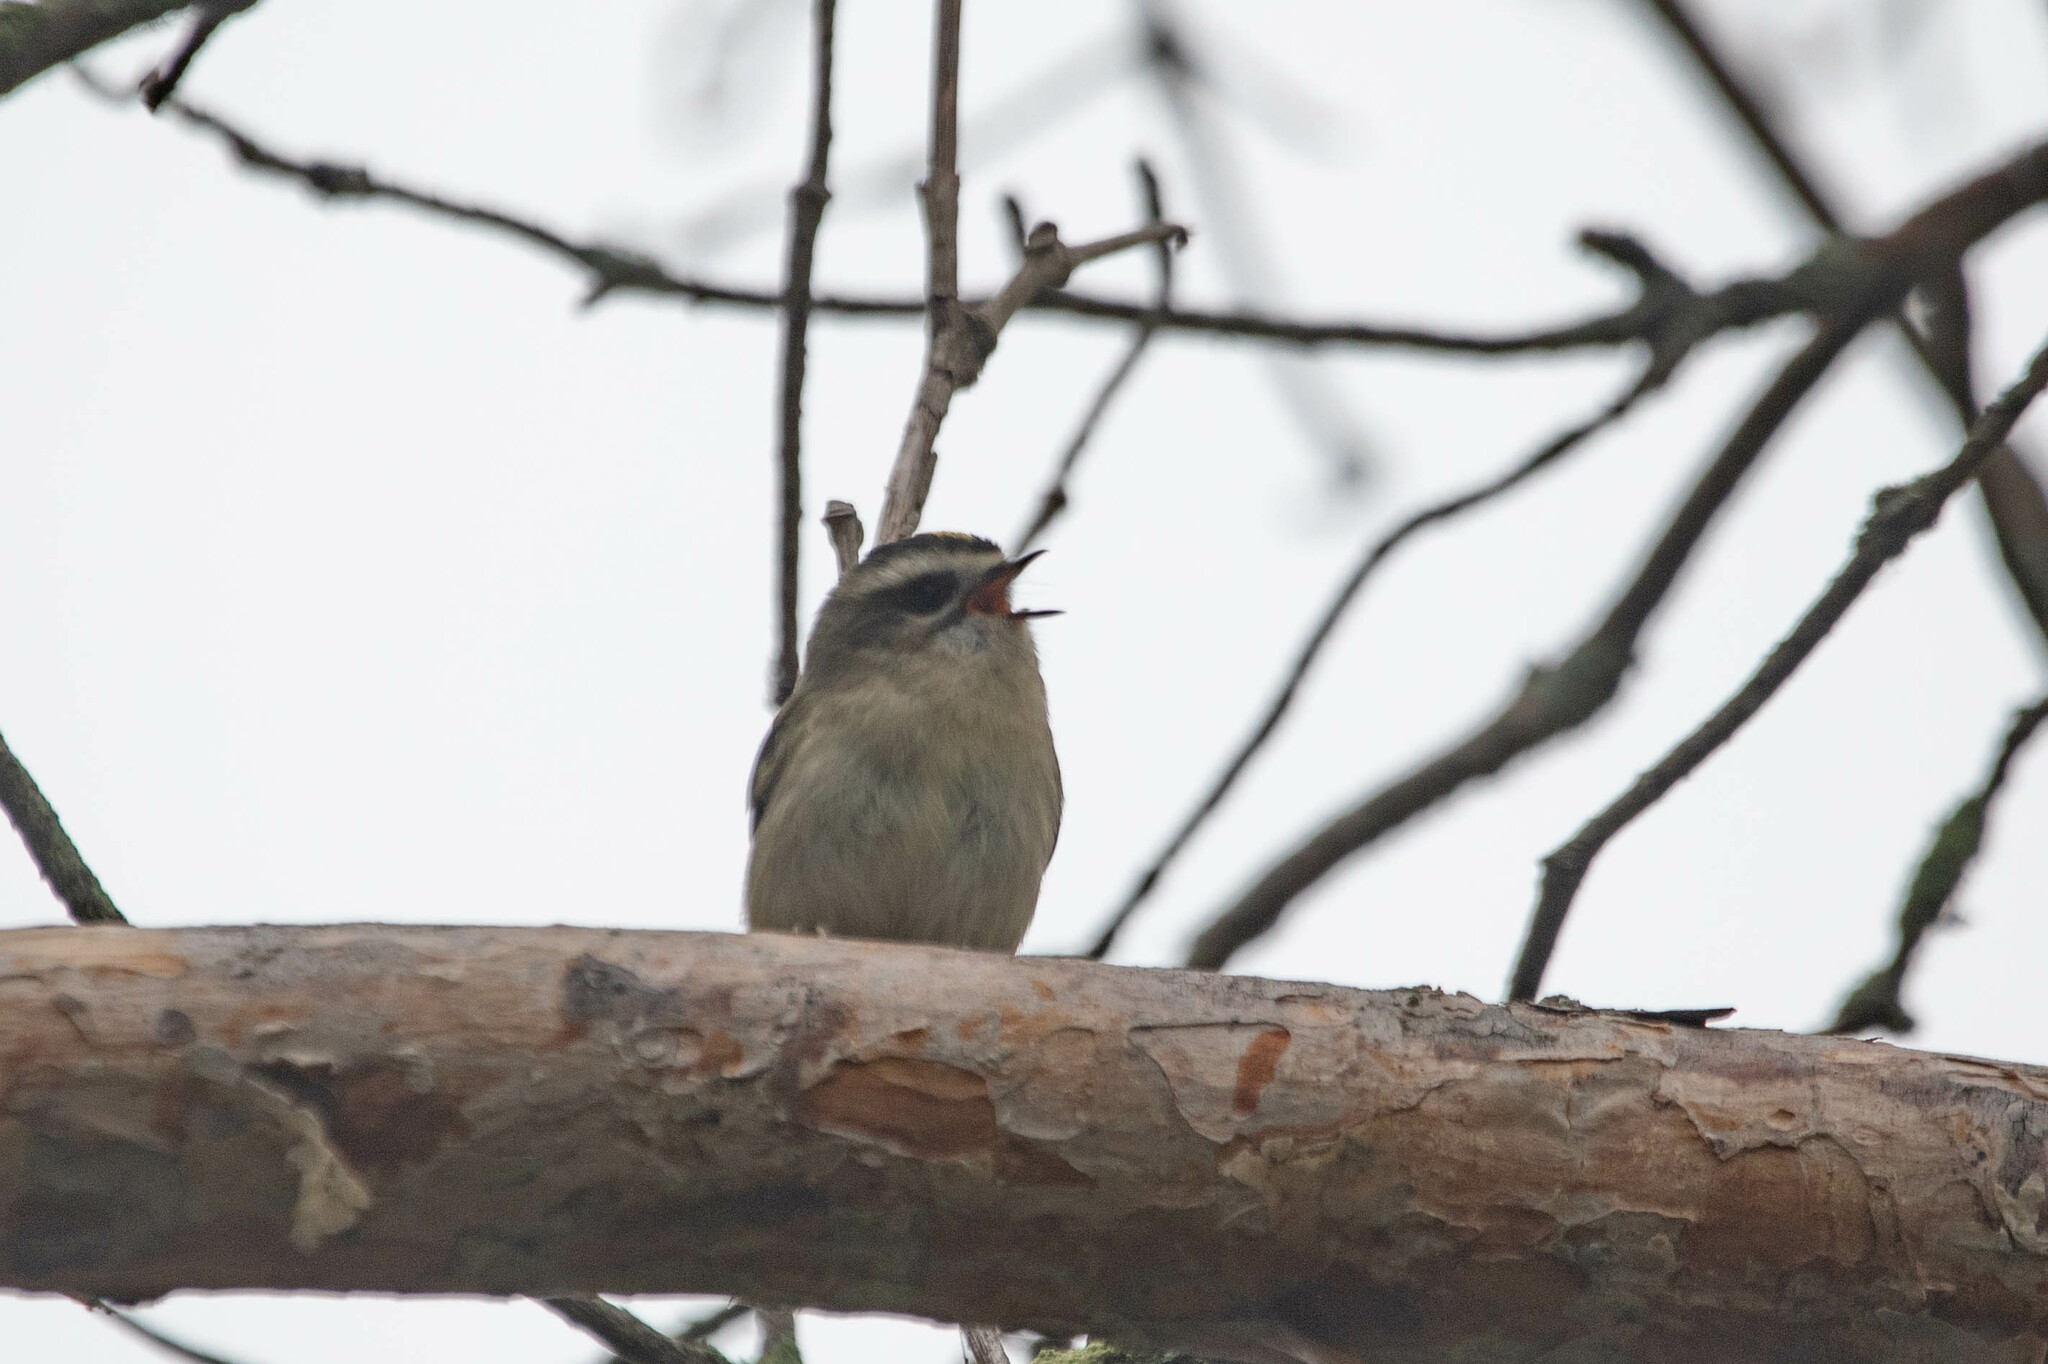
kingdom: Animalia
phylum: Chordata
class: Aves
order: Passeriformes
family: Regulidae
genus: Regulus
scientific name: Regulus satrapa
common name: Golden-crowned kinglet
